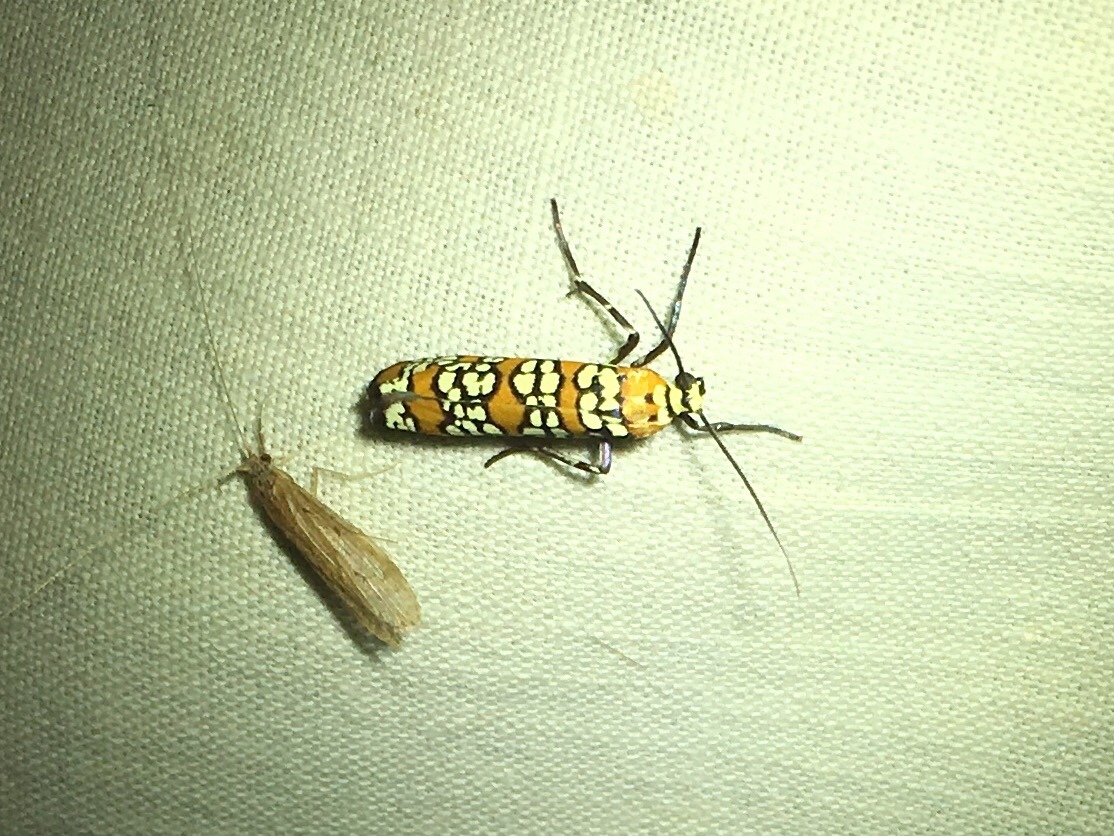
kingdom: Animalia
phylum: Arthropoda
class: Insecta
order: Lepidoptera
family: Attevidae
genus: Atteva
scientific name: Atteva punctella
